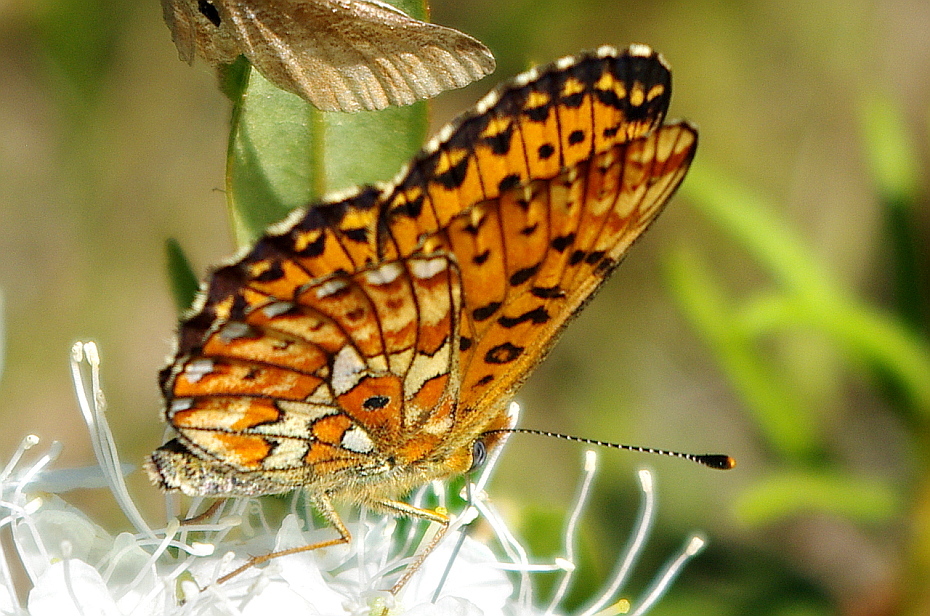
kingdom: Animalia
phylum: Arthropoda
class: Insecta
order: Lepidoptera
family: Nymphalidae
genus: Clossiana
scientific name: Clossiana euphrosyne
